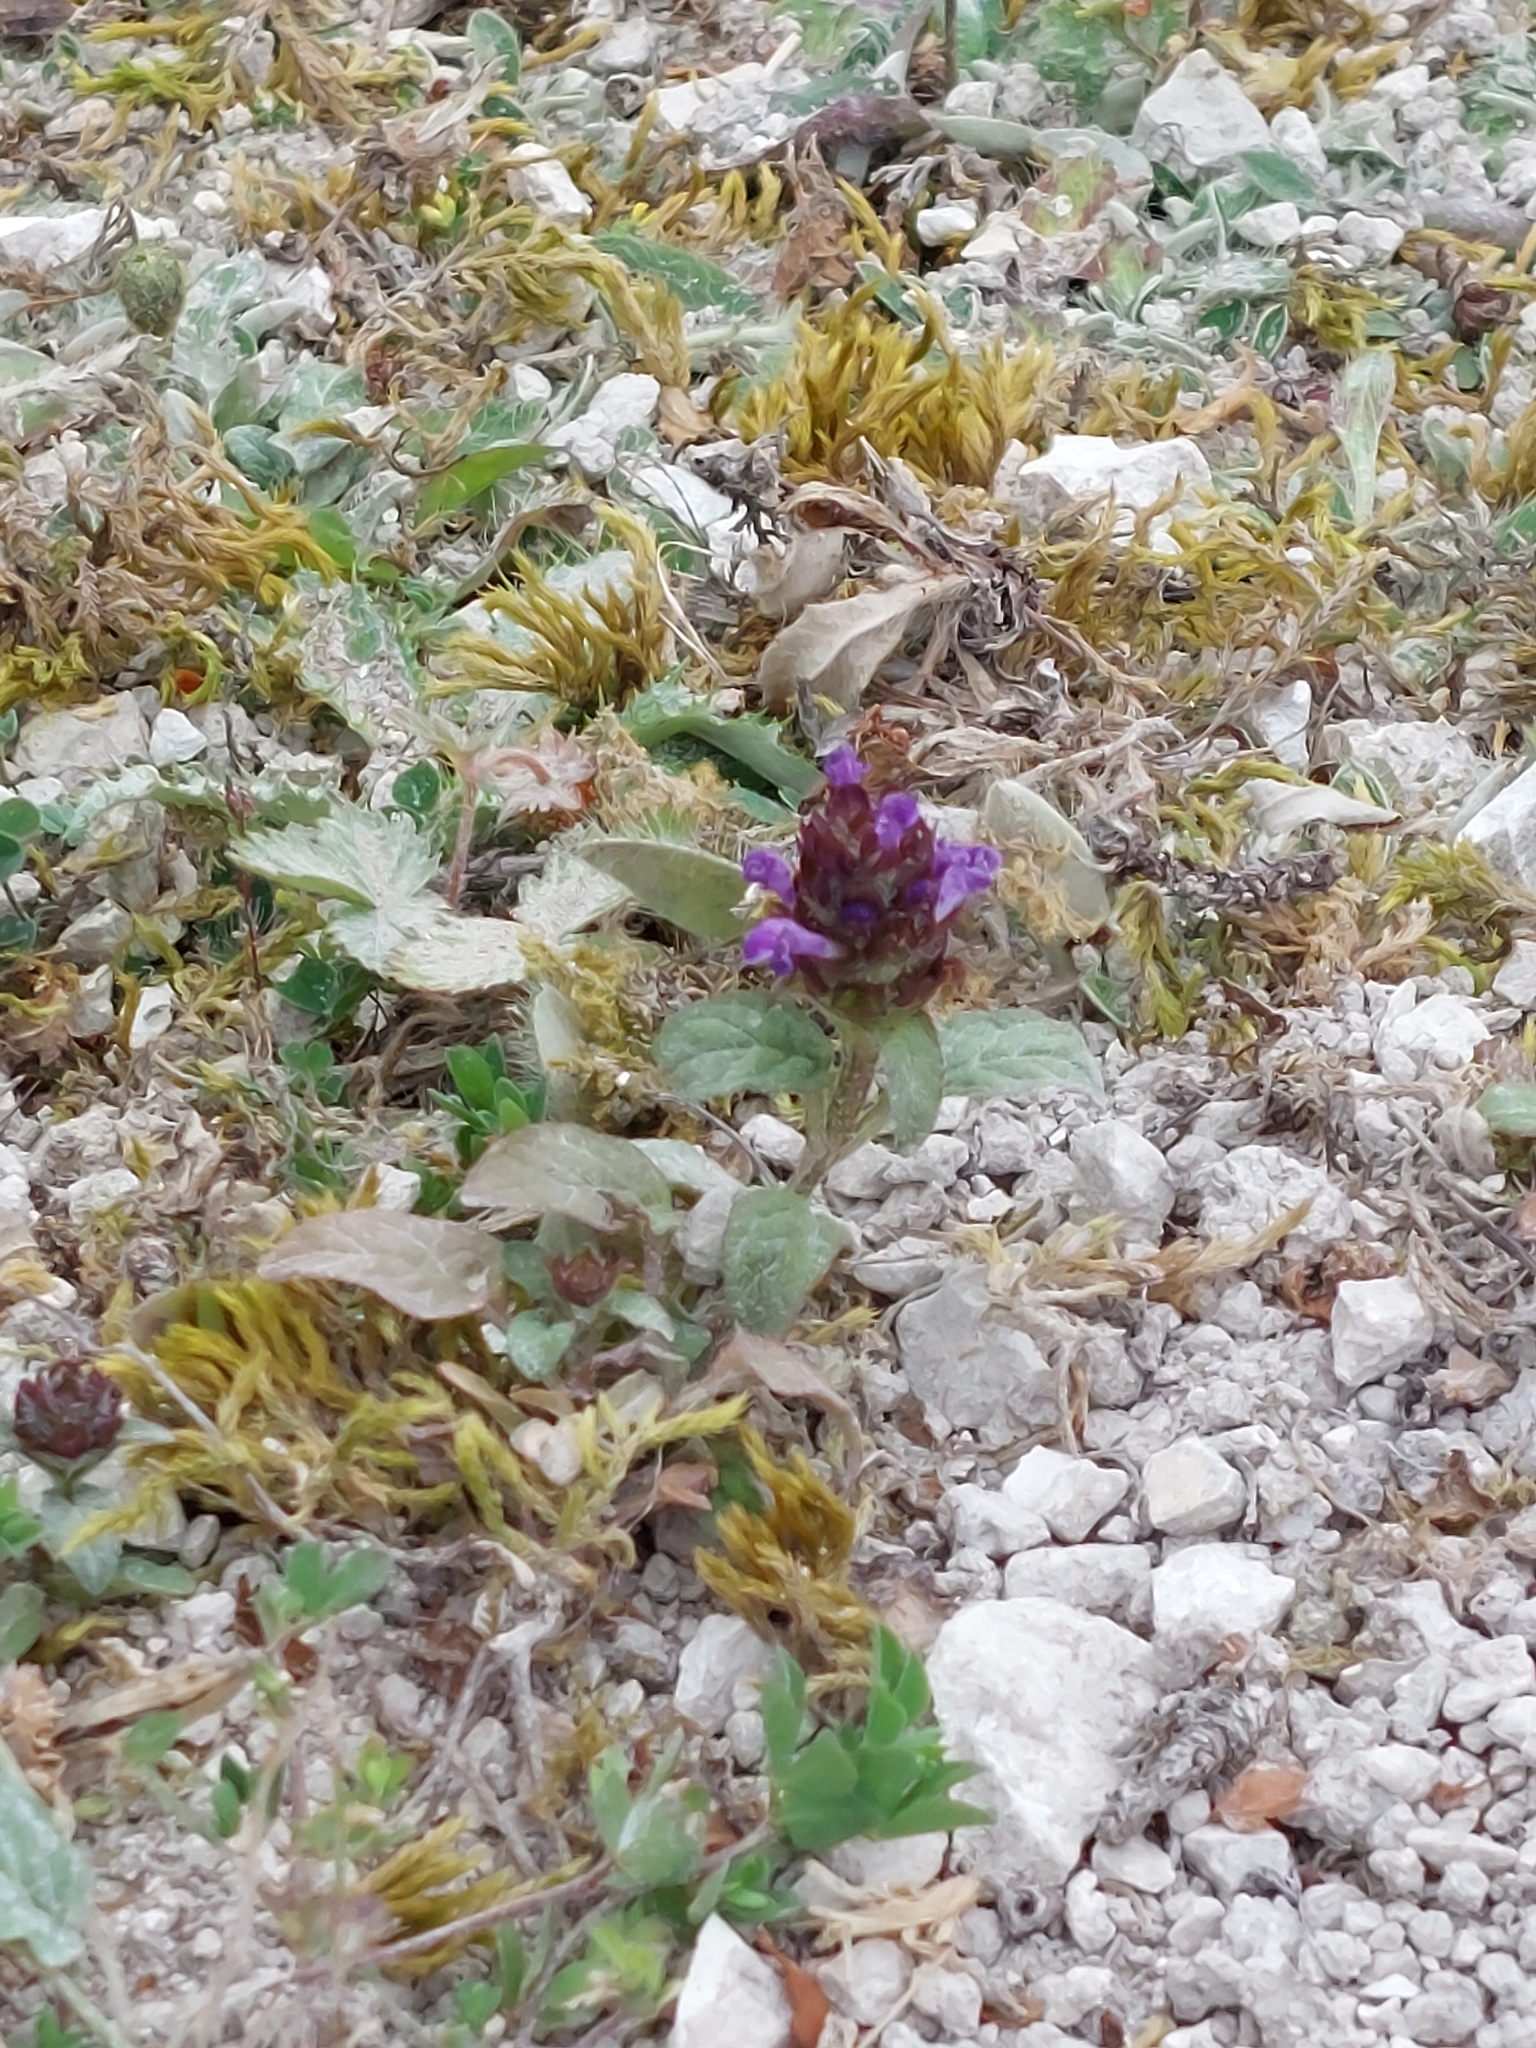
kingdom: Plantae
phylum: Tracheophyta
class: Magnoliopsida
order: Lamiales
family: Lamiaceae
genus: Prunella
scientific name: Prunella vulgaris
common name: Heal-all
